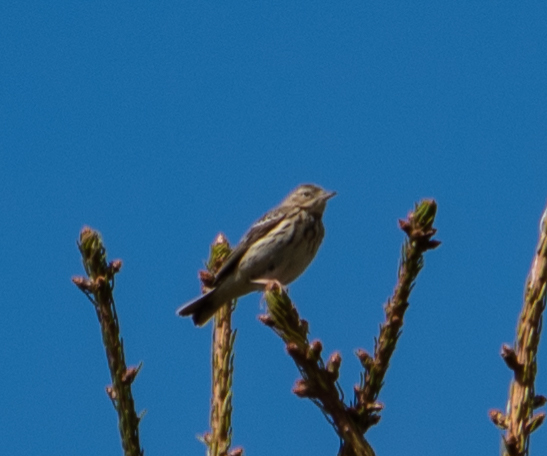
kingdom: Animalia
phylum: Chordata
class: Aves
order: Passeriformes
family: Motacillidae
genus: Anthus
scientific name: Anthus trivialis
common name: Tree pipit
